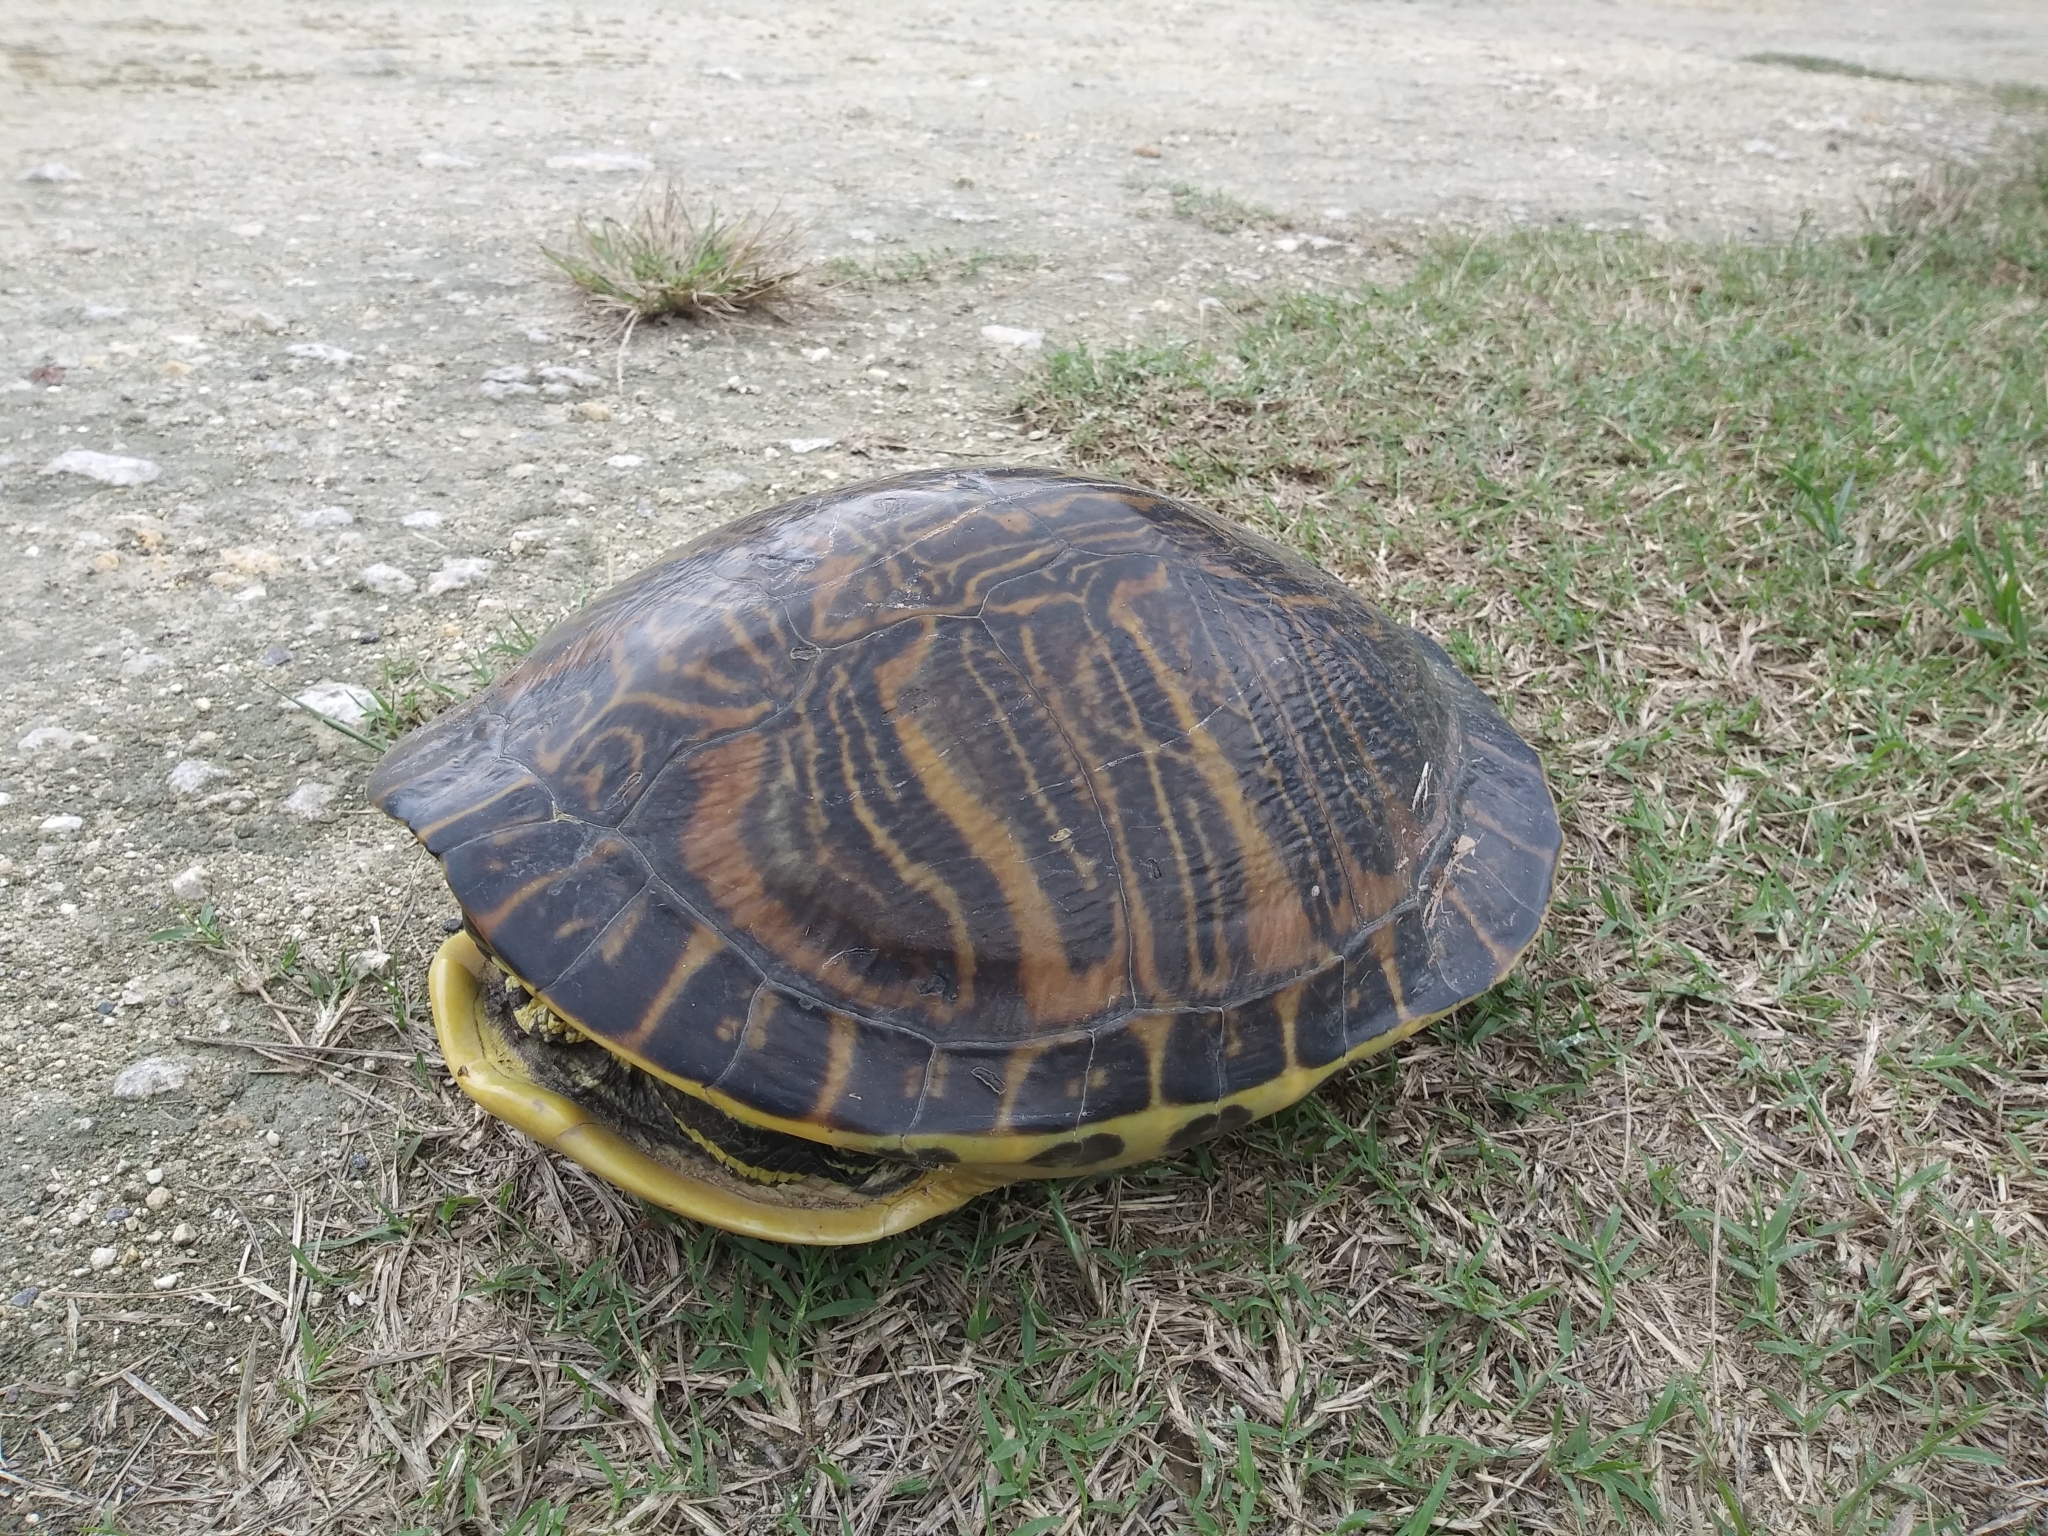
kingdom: Animalia
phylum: Chordata
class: Testudines
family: Emydidae
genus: Pseudemys
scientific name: Pseudemys peninsularis
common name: Peninsula cooter
